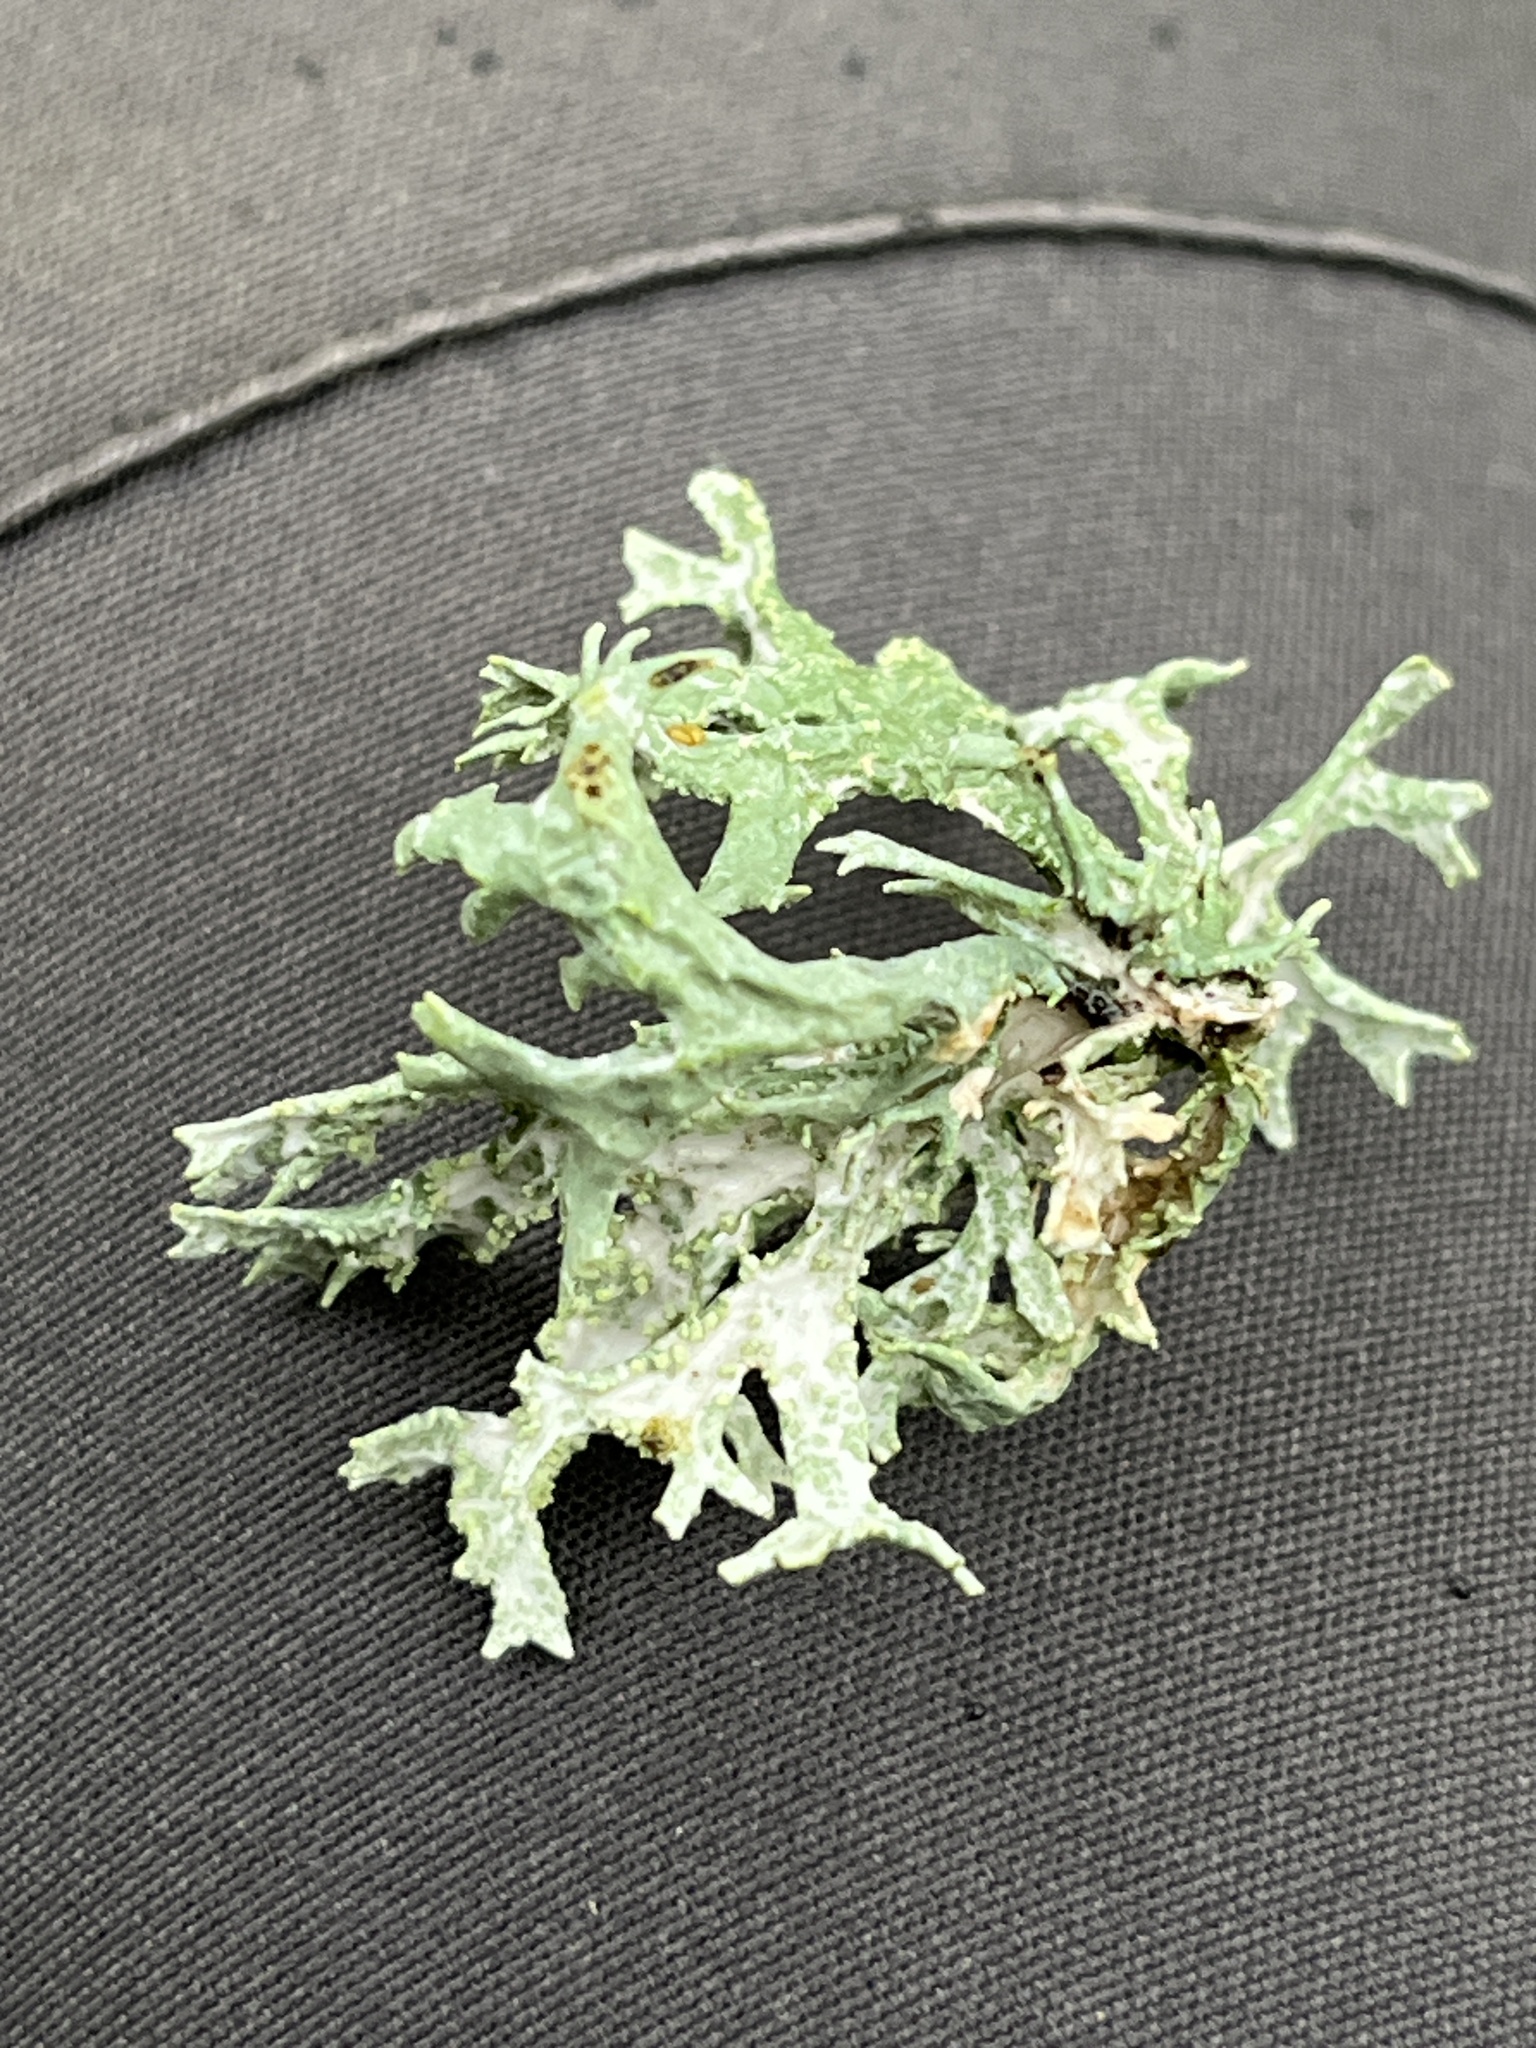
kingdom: Fungi
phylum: Ascomycota
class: Lecanoromycetes
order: Lecanorales
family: Parmeliaceae
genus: Evernia
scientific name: Evernia prunastri
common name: Oak moss
